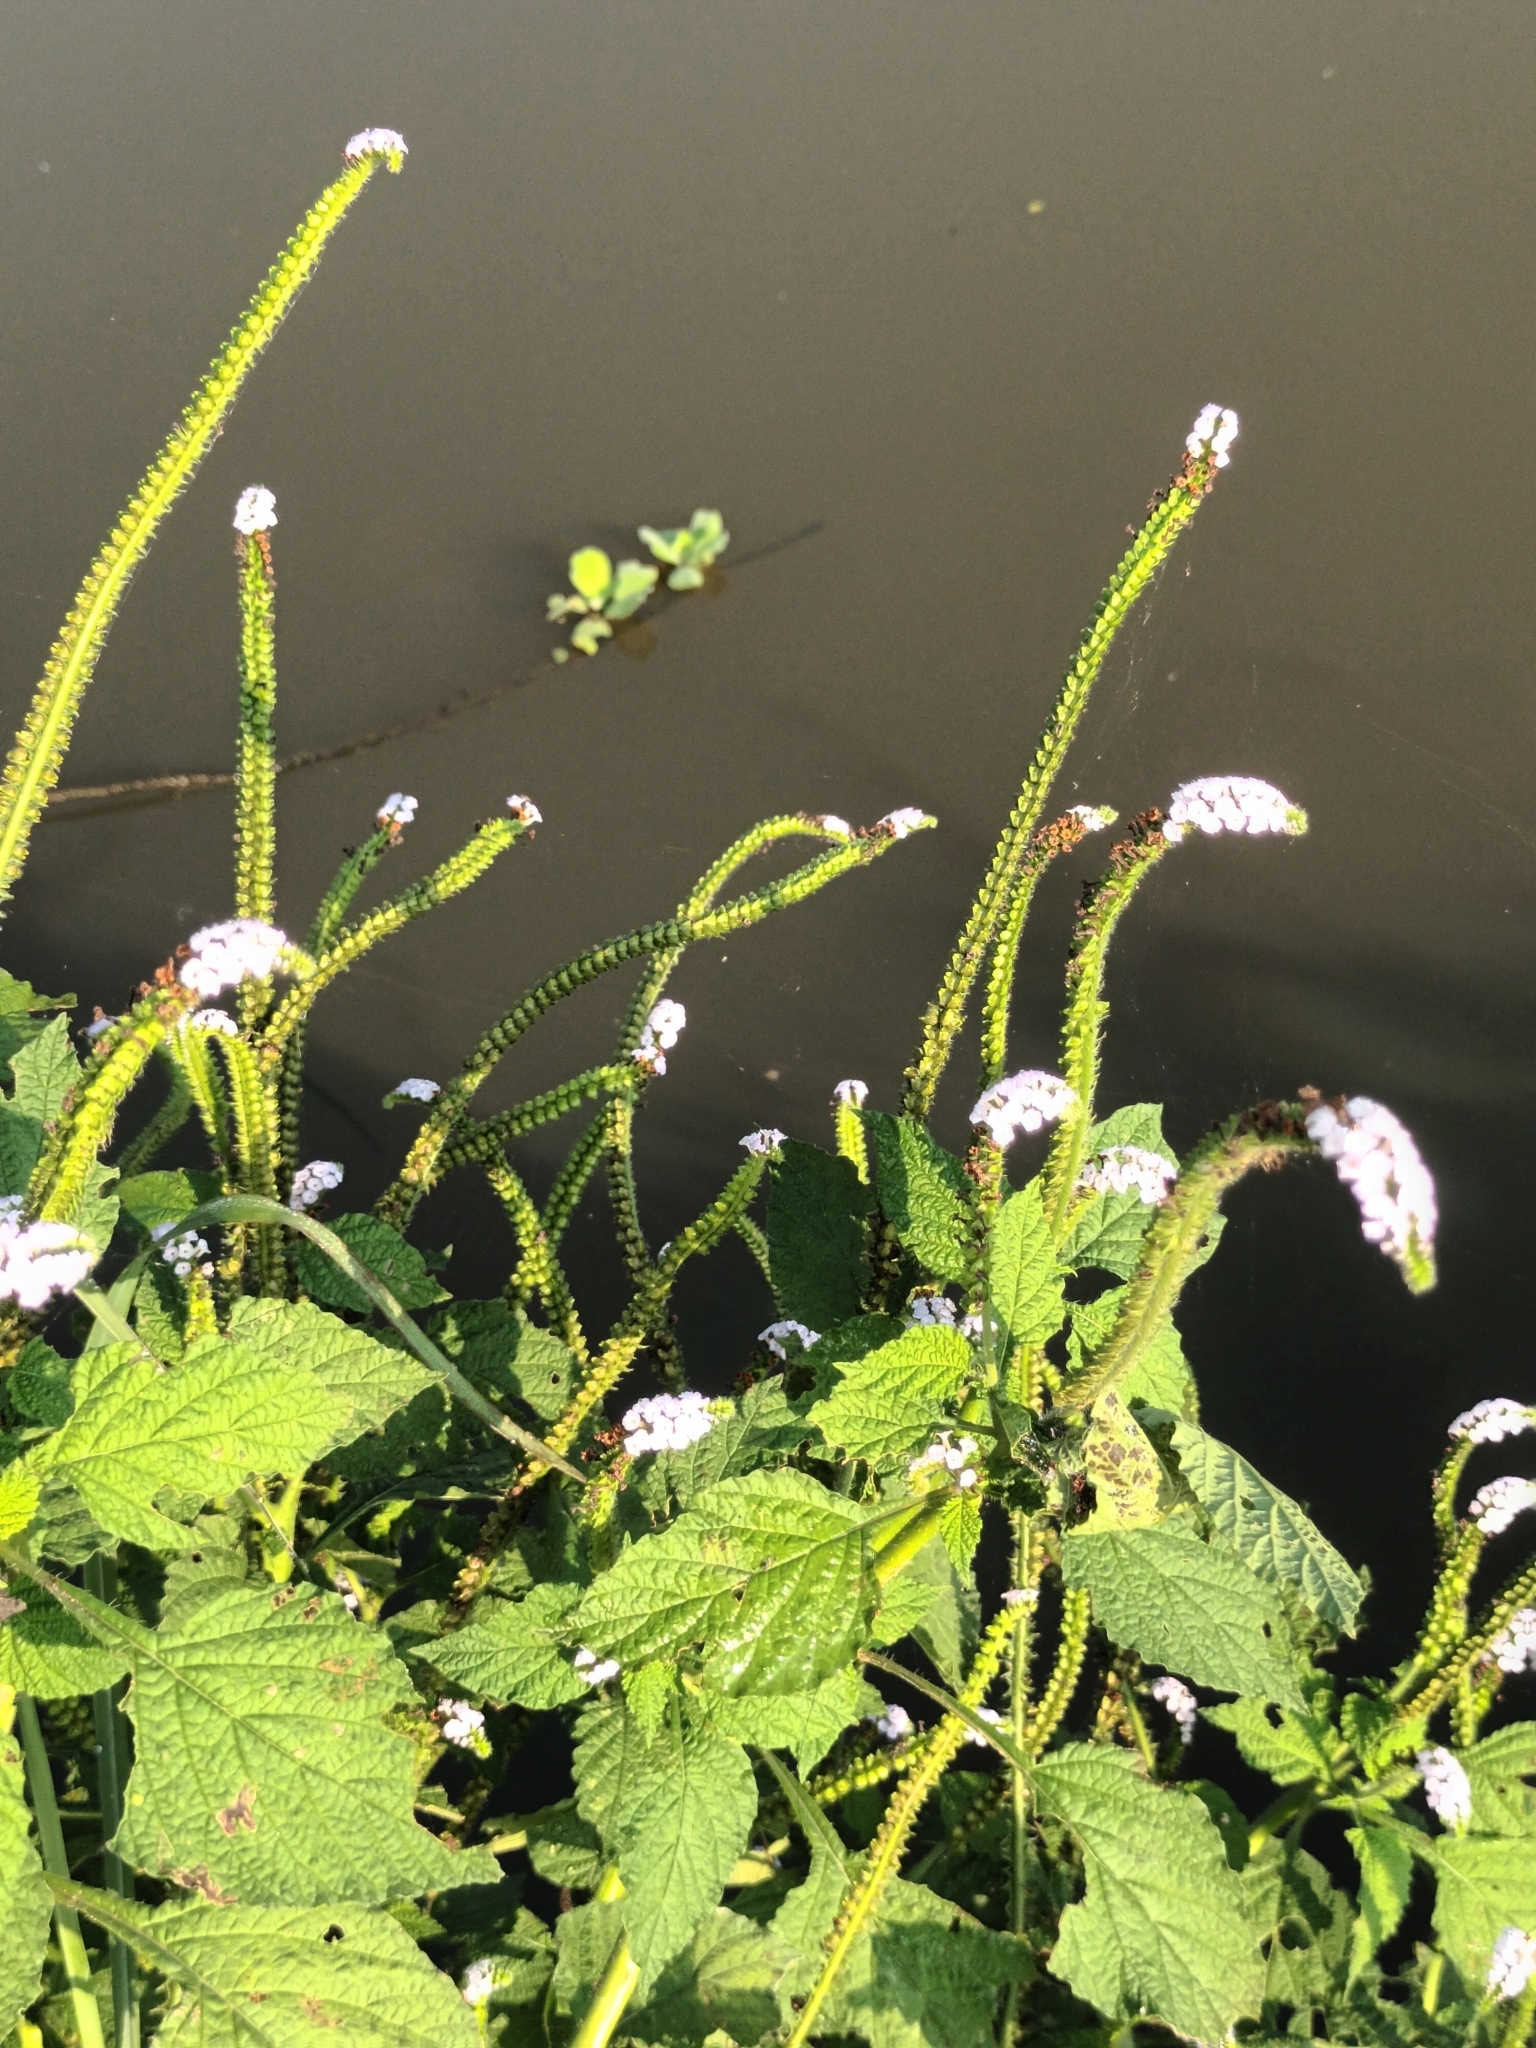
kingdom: Plantae
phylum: Tracheophyta
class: Magnoliopsida
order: Boraginales
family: Heliotropiaceae
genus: Heliotropium
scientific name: Heliotropium indicum
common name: Indian heliotrope
